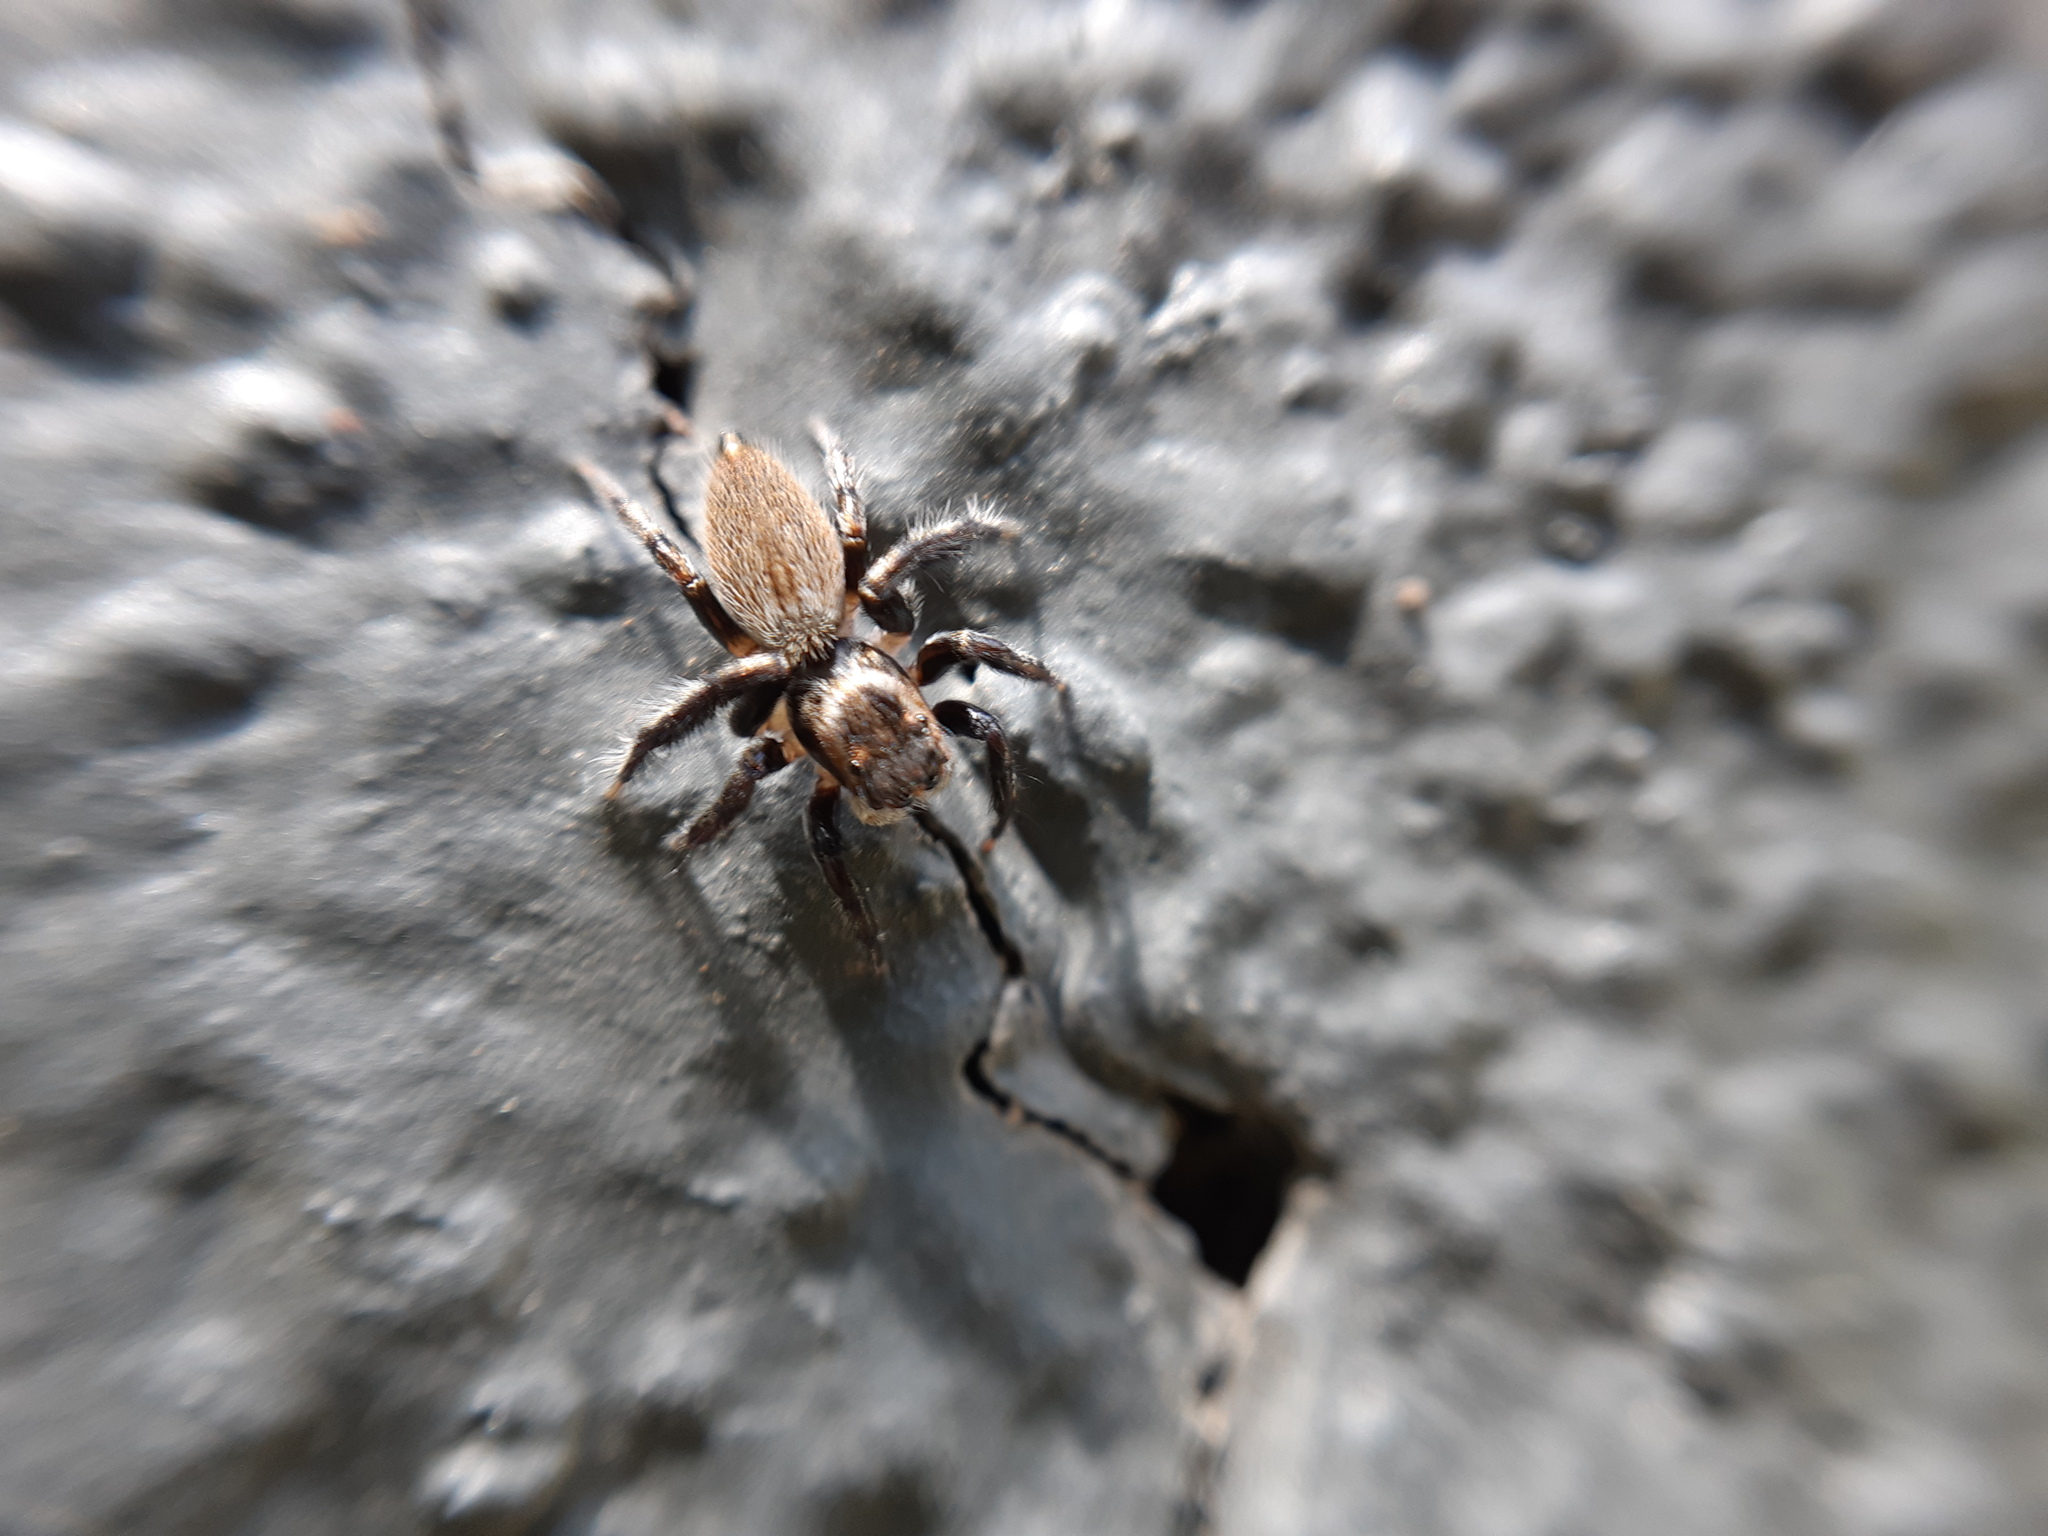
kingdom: Animalia
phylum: Arthropoda
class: Arachnida
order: Araneae
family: Salticidae
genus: Maratus
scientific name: Maratus griseus
